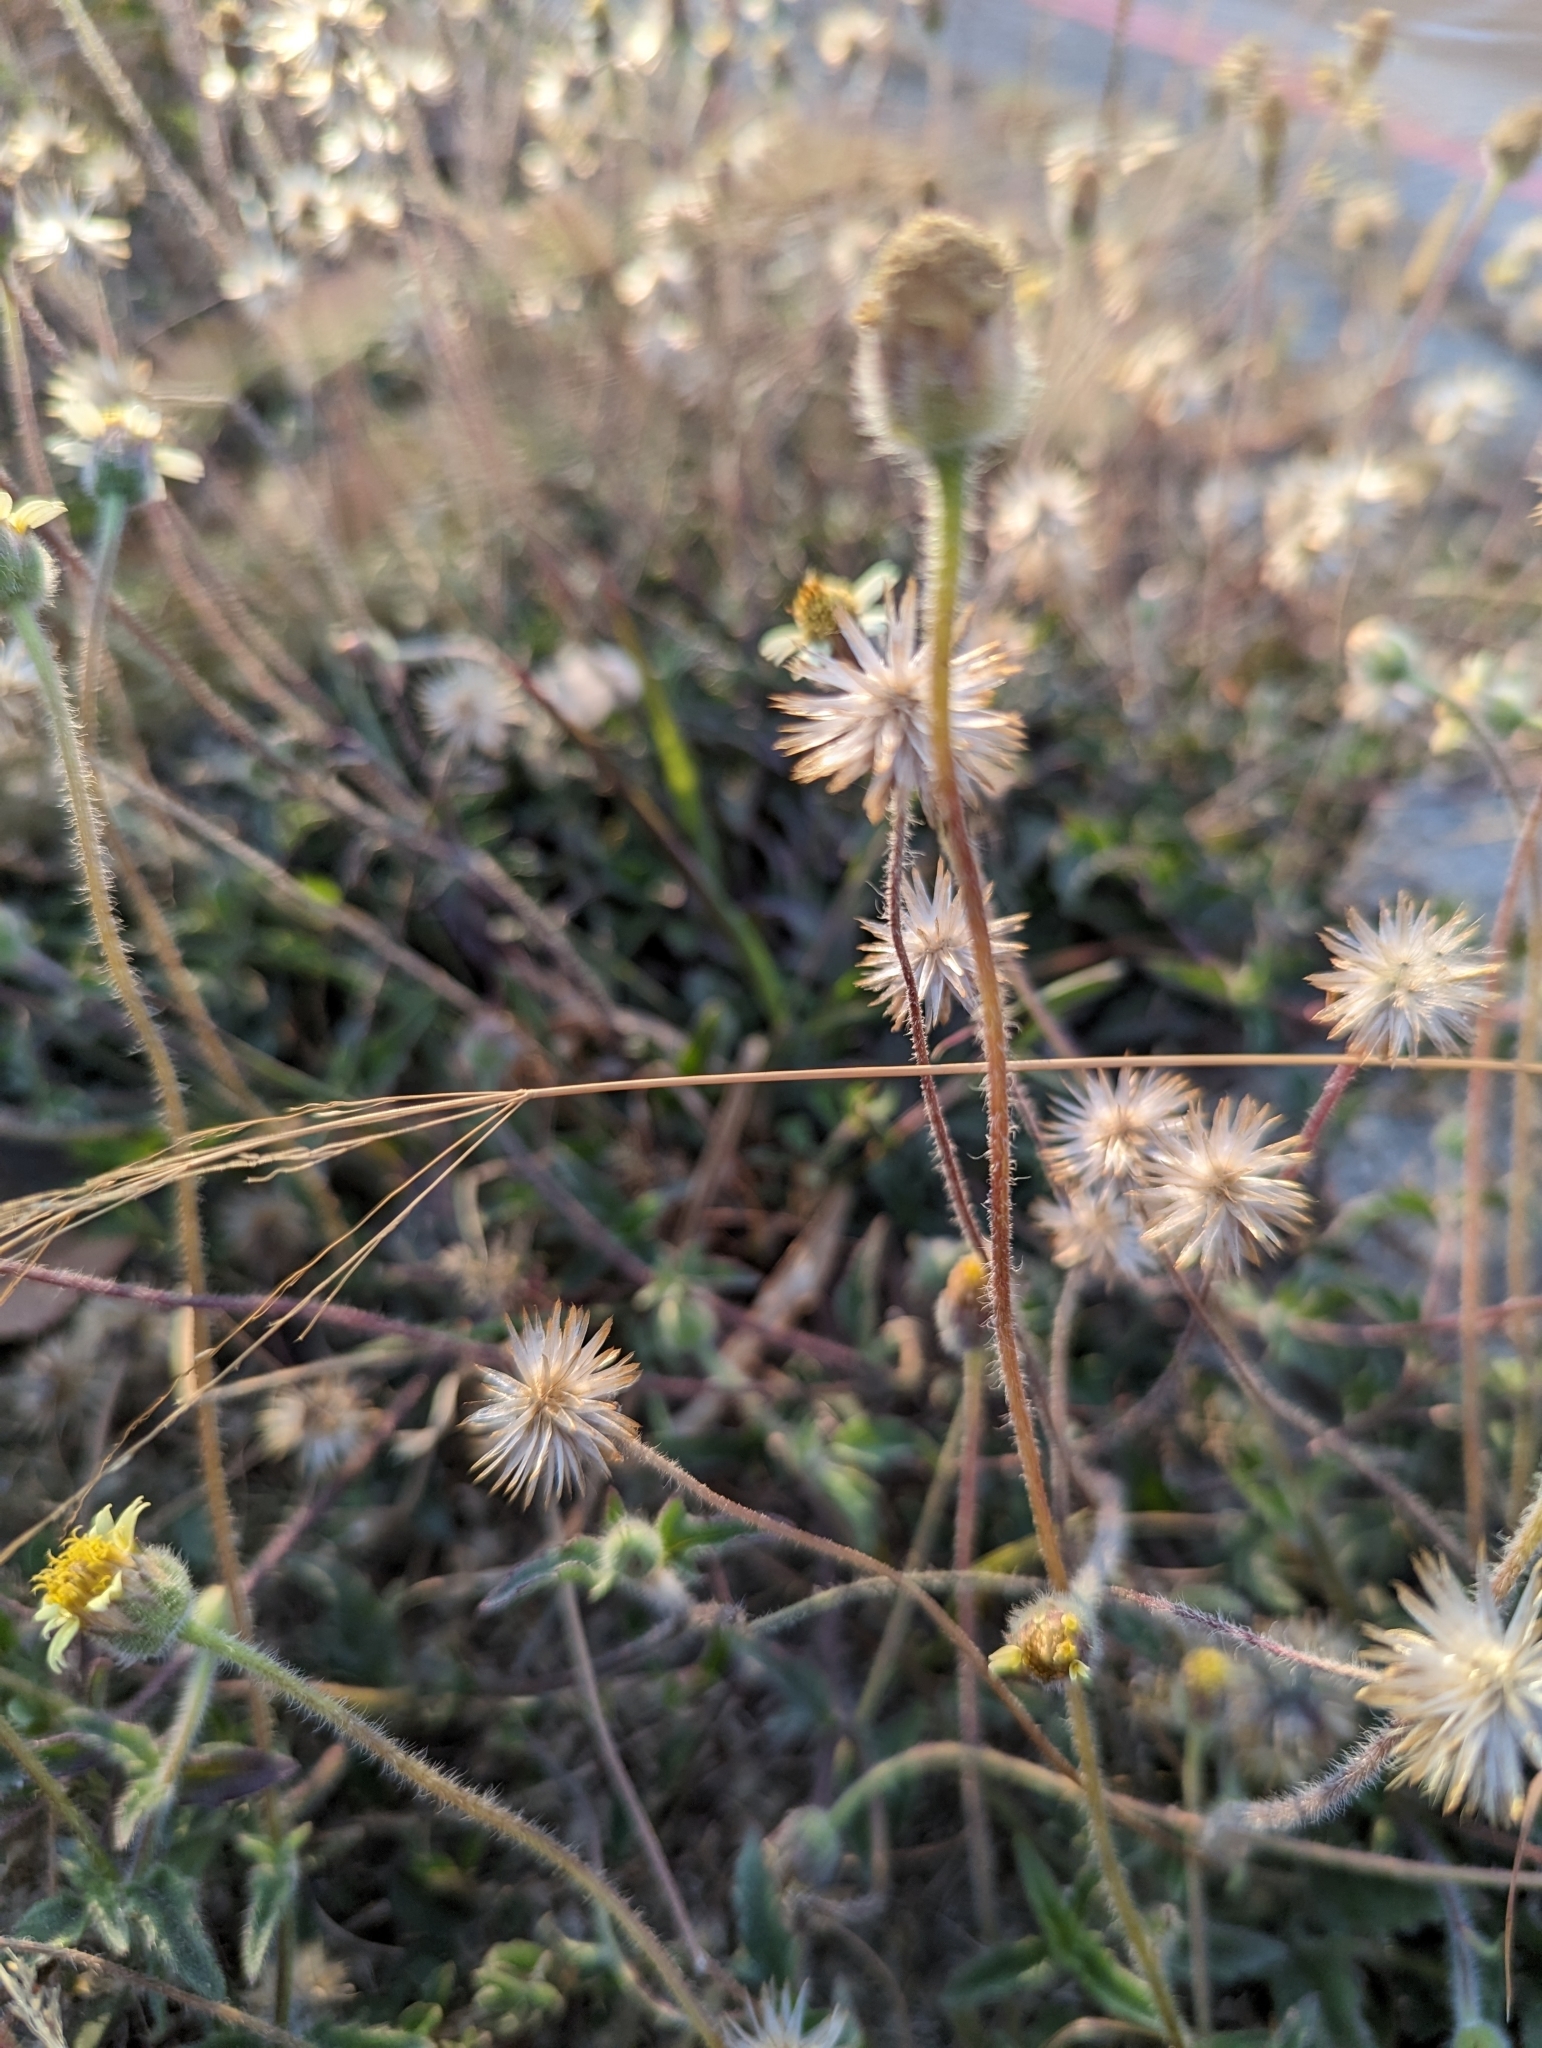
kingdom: Plantae
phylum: Tracheophyta
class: Magnoliopsida
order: Asterales
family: Asteraceae
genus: Tridax
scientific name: Tridax procumbens
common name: Coatbuttons
